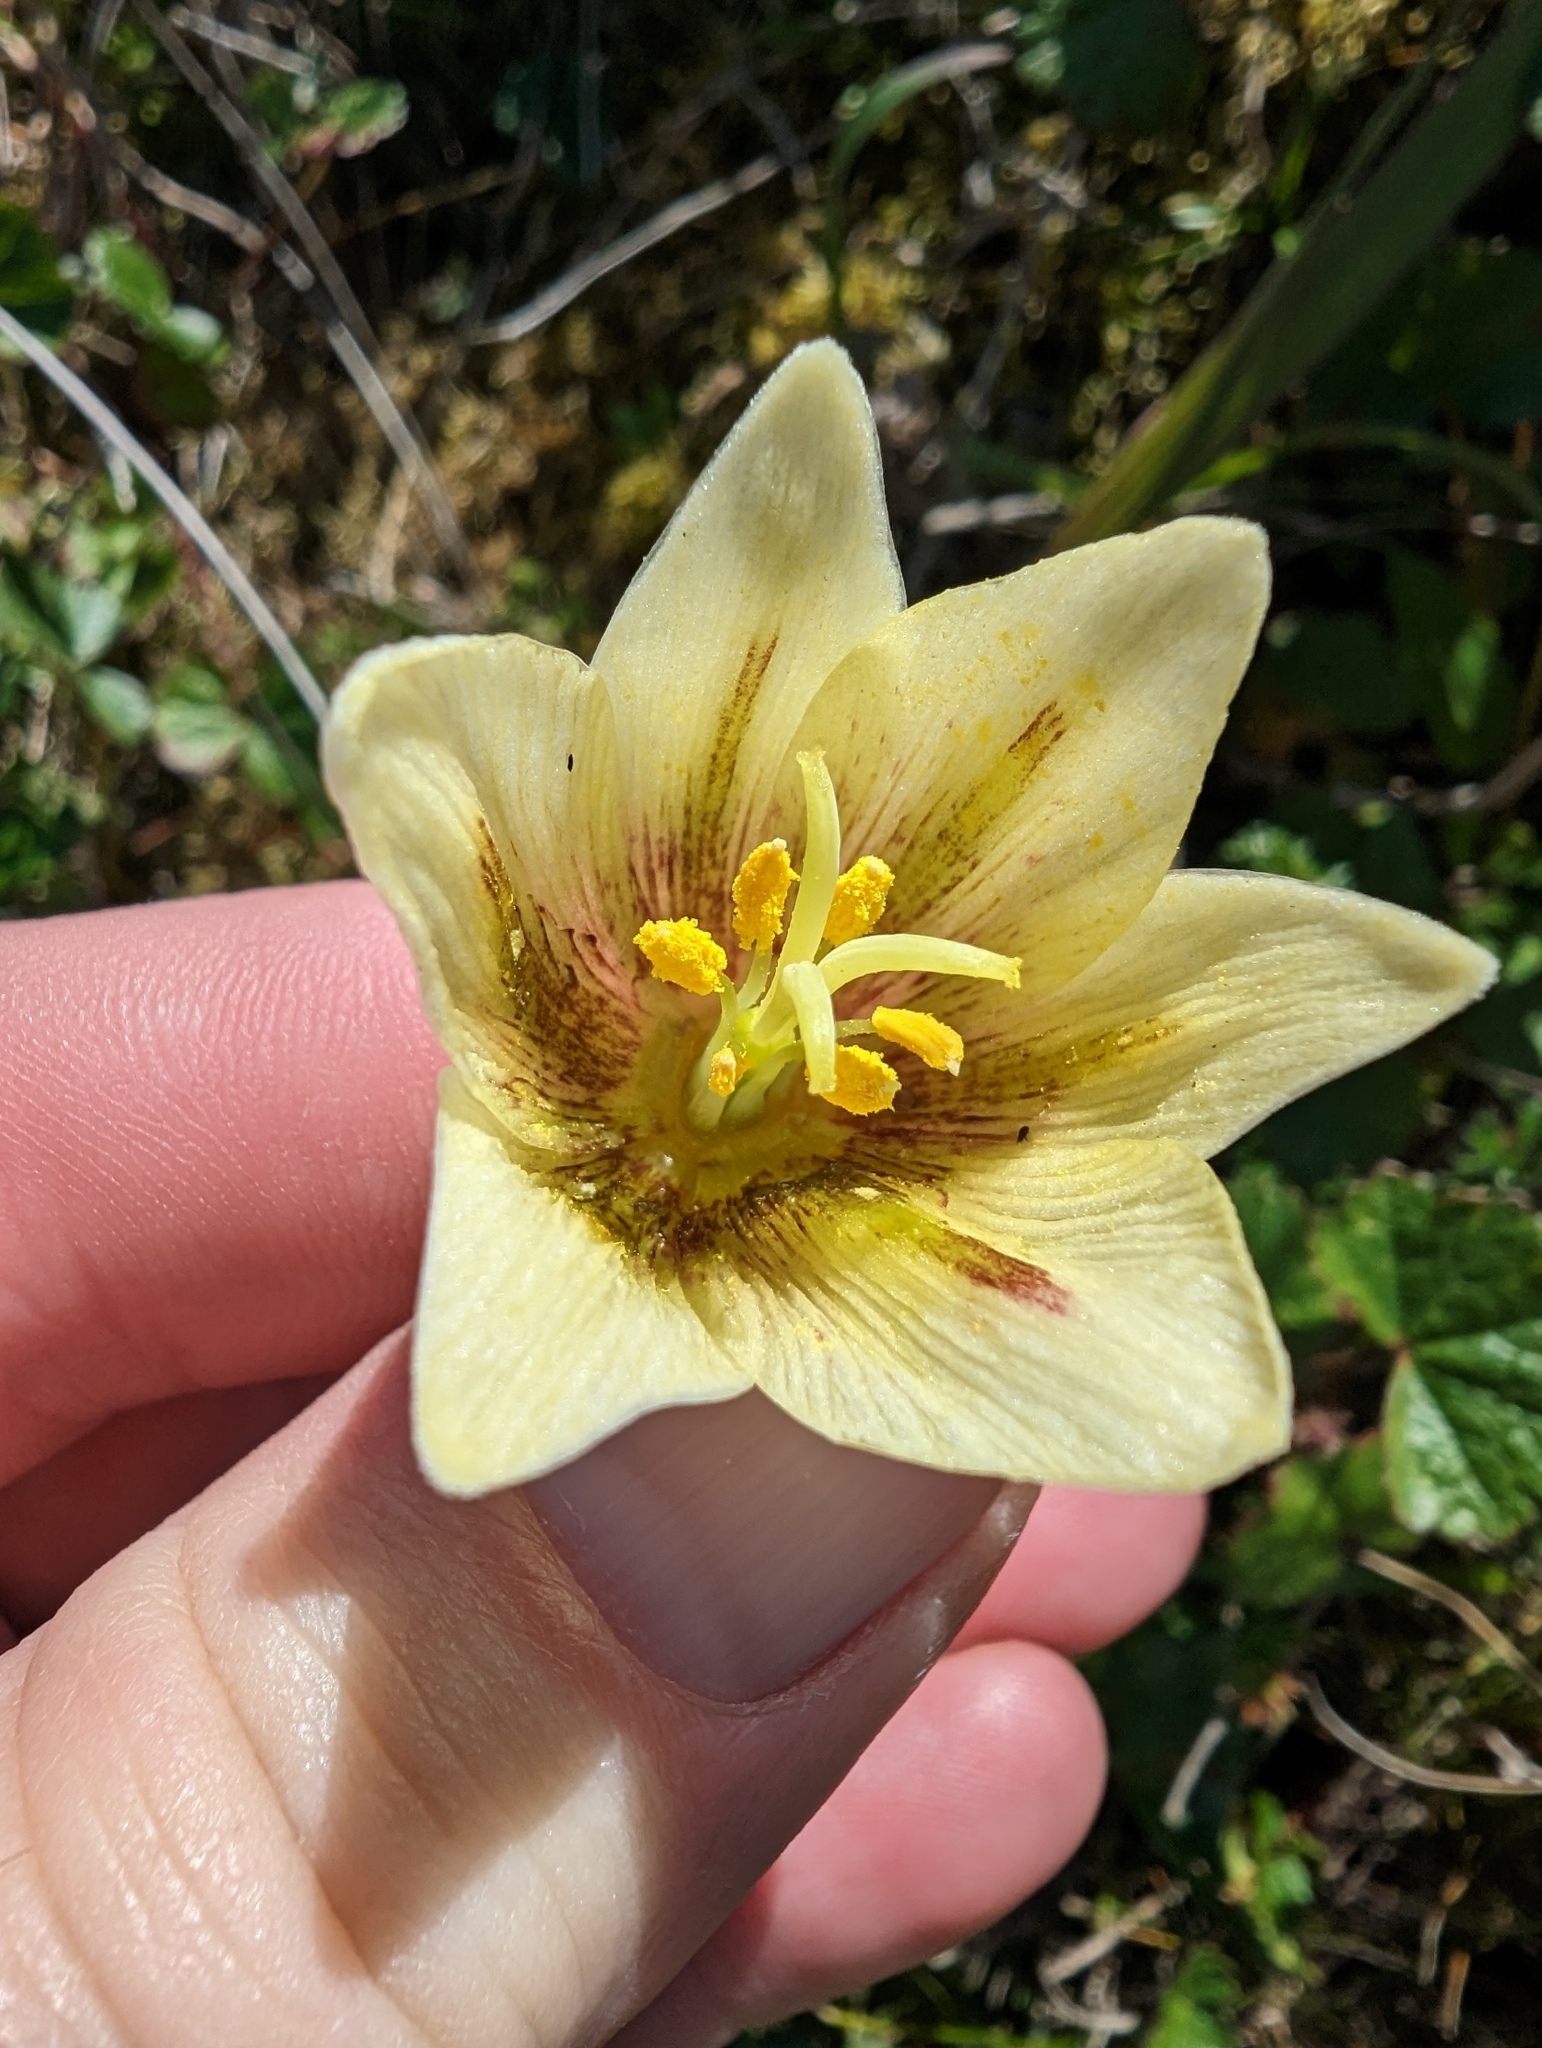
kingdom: Plantae
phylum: Tracheophyta
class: Liliopsida
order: Liliales
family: Liliaceae
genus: Fritillaria
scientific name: Fritillaria liliacea
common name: Fragrant fritillary
